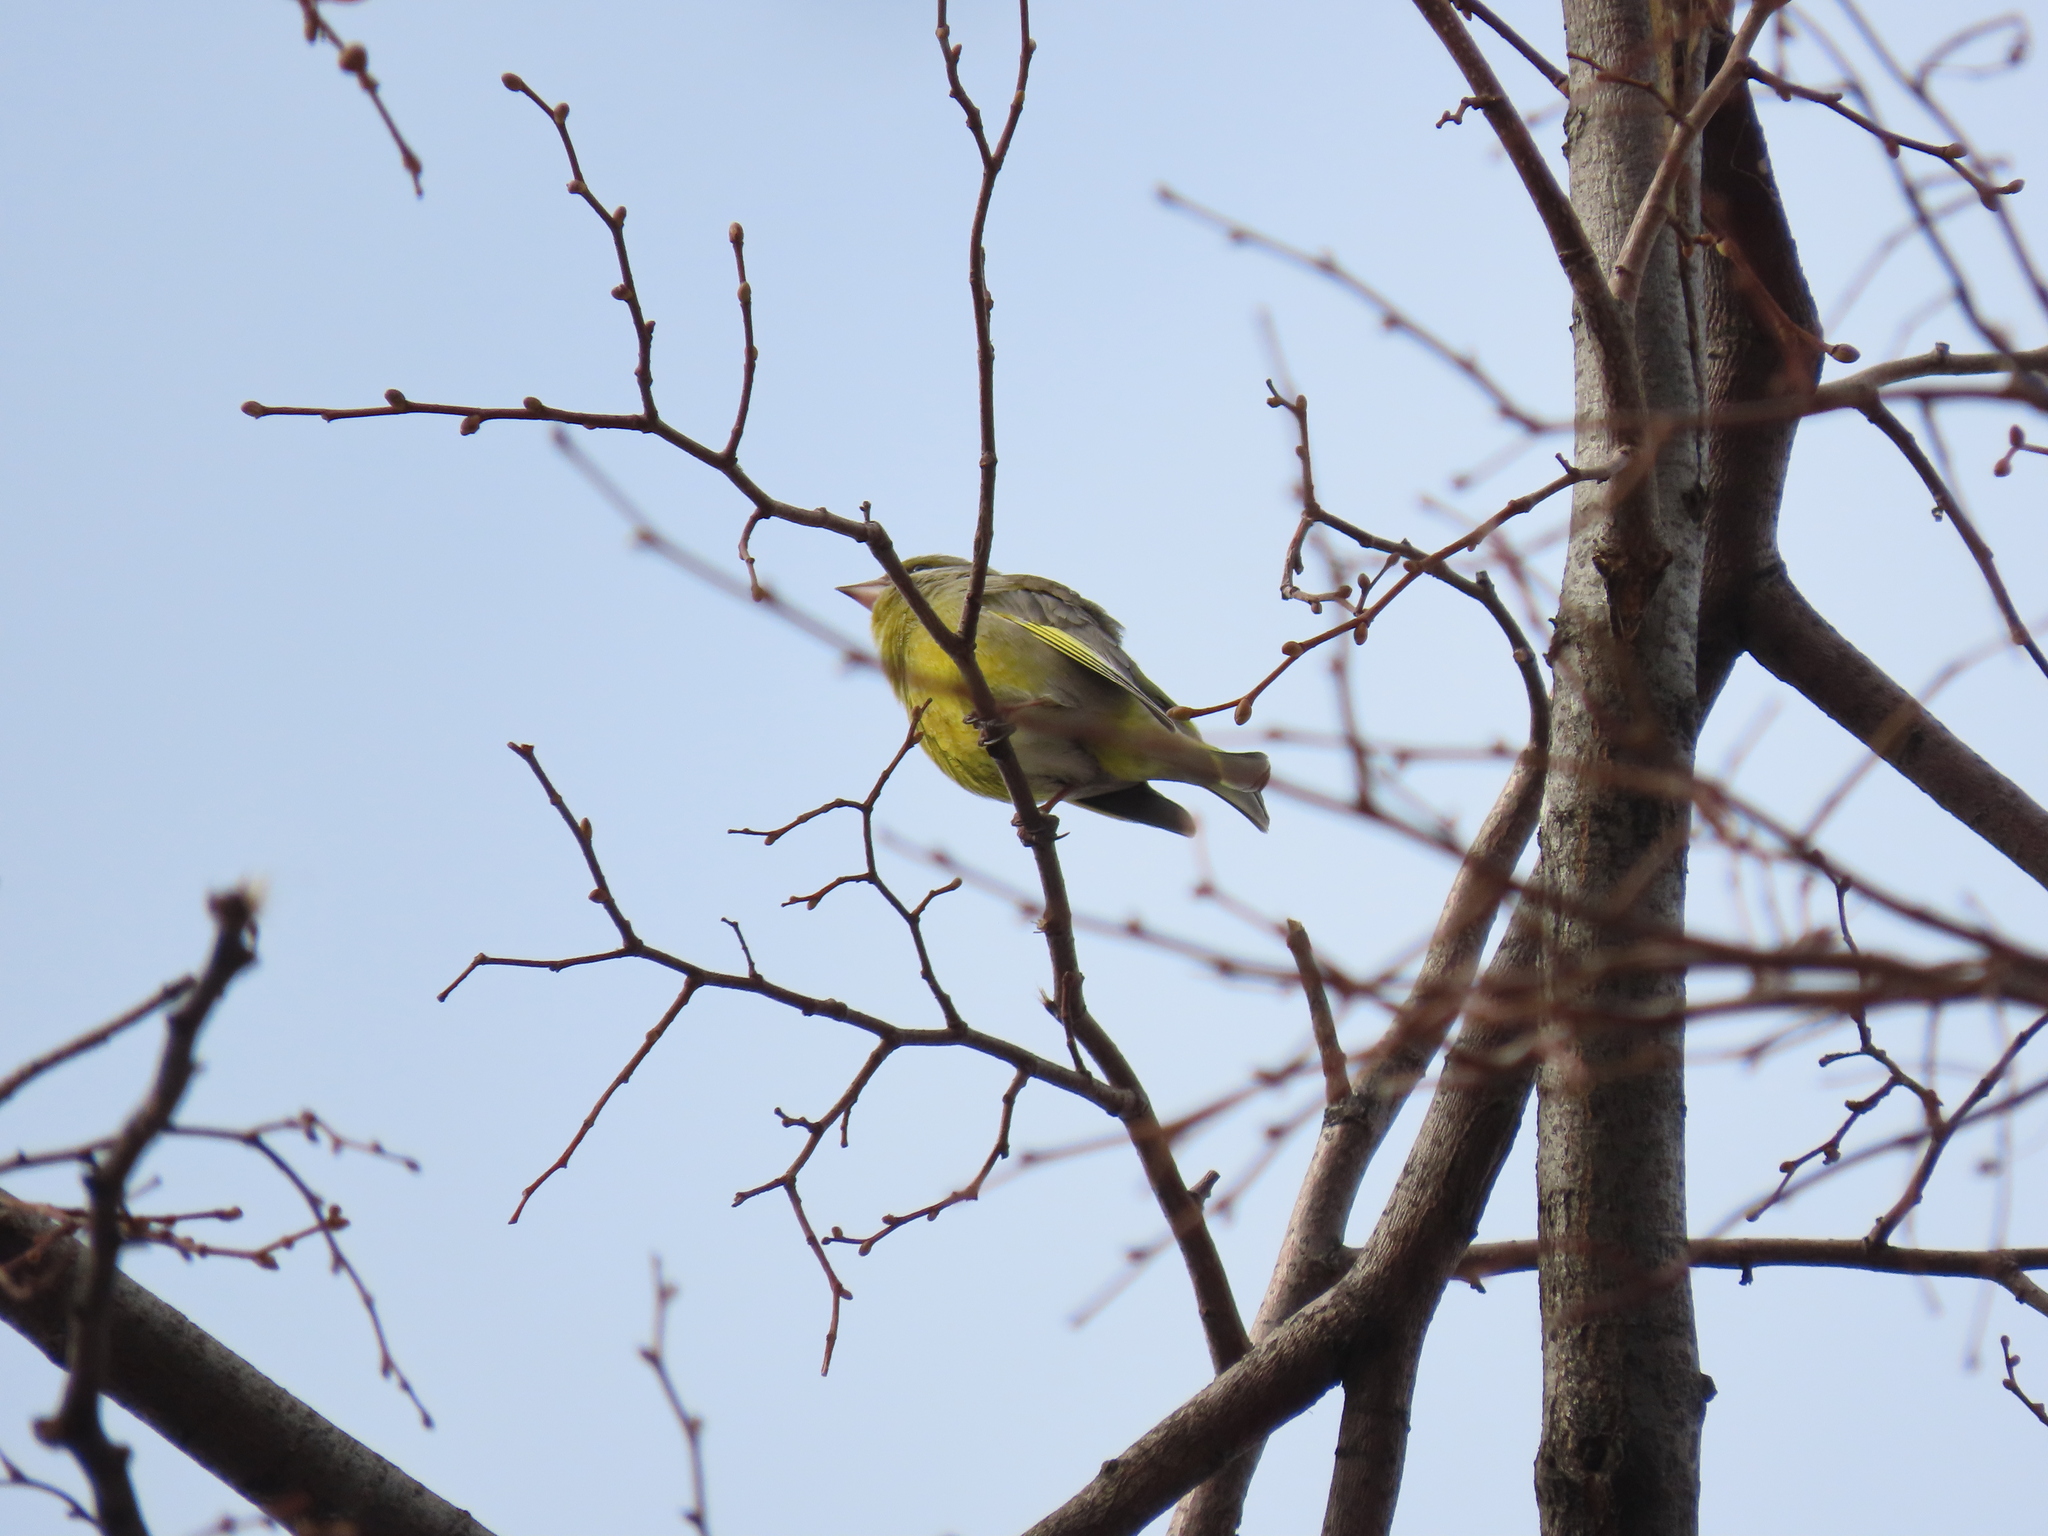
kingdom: Plantae
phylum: Tracheophyta
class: Liliopsida
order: Poales
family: Poaceae
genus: Chloris
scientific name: Chloris chloris
